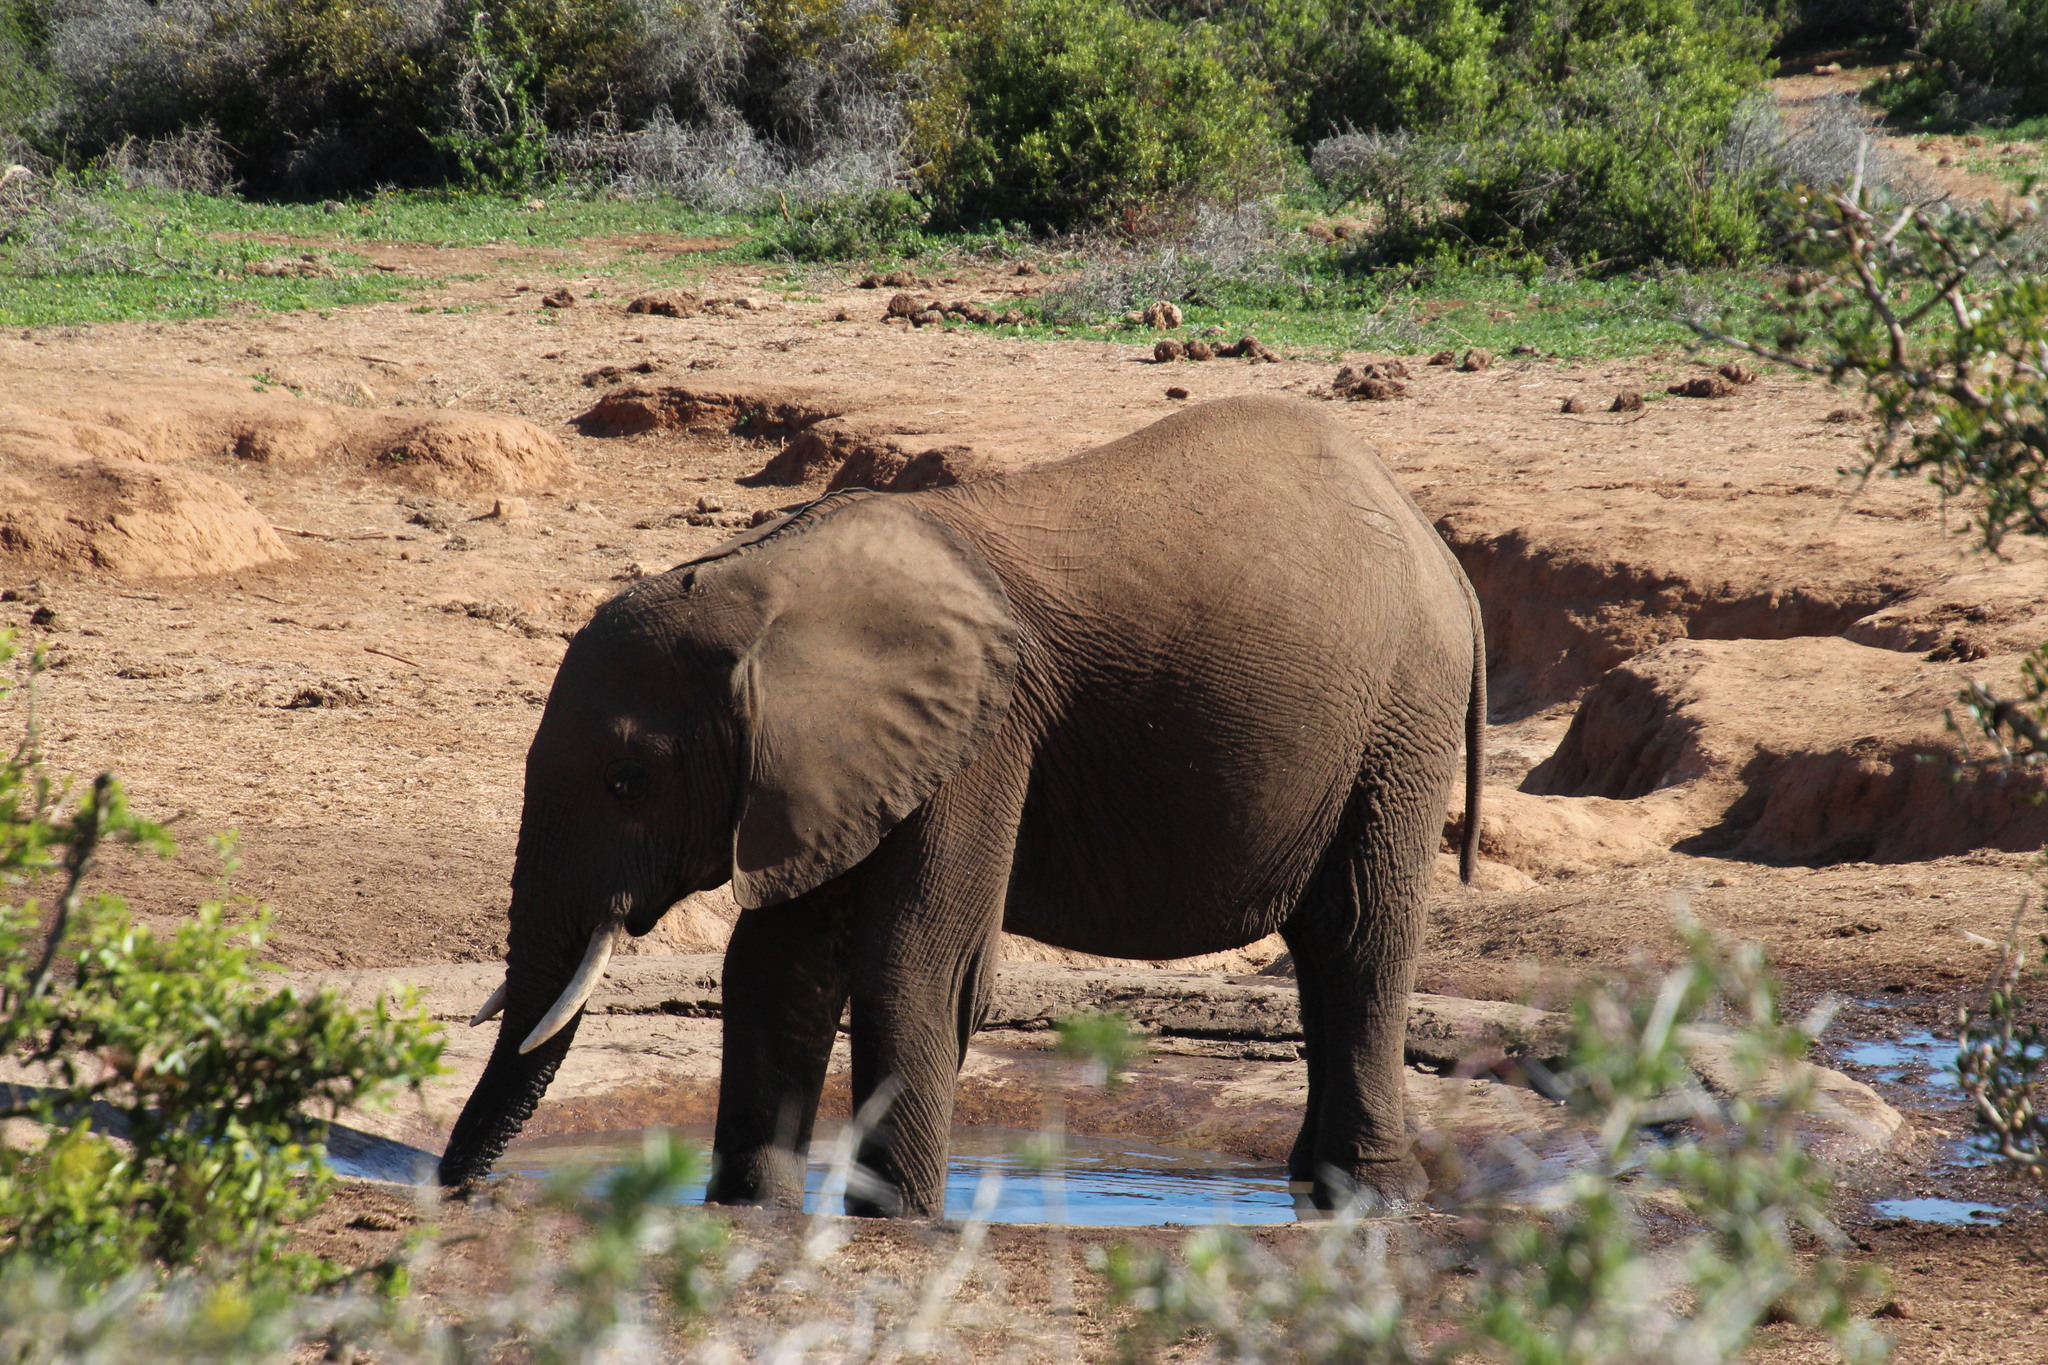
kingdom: Animalia
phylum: Chordata
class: Mammalia
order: Proboscidea
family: Elephantidae
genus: Loxodonta
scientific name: Loxodonta africana
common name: African elephant
